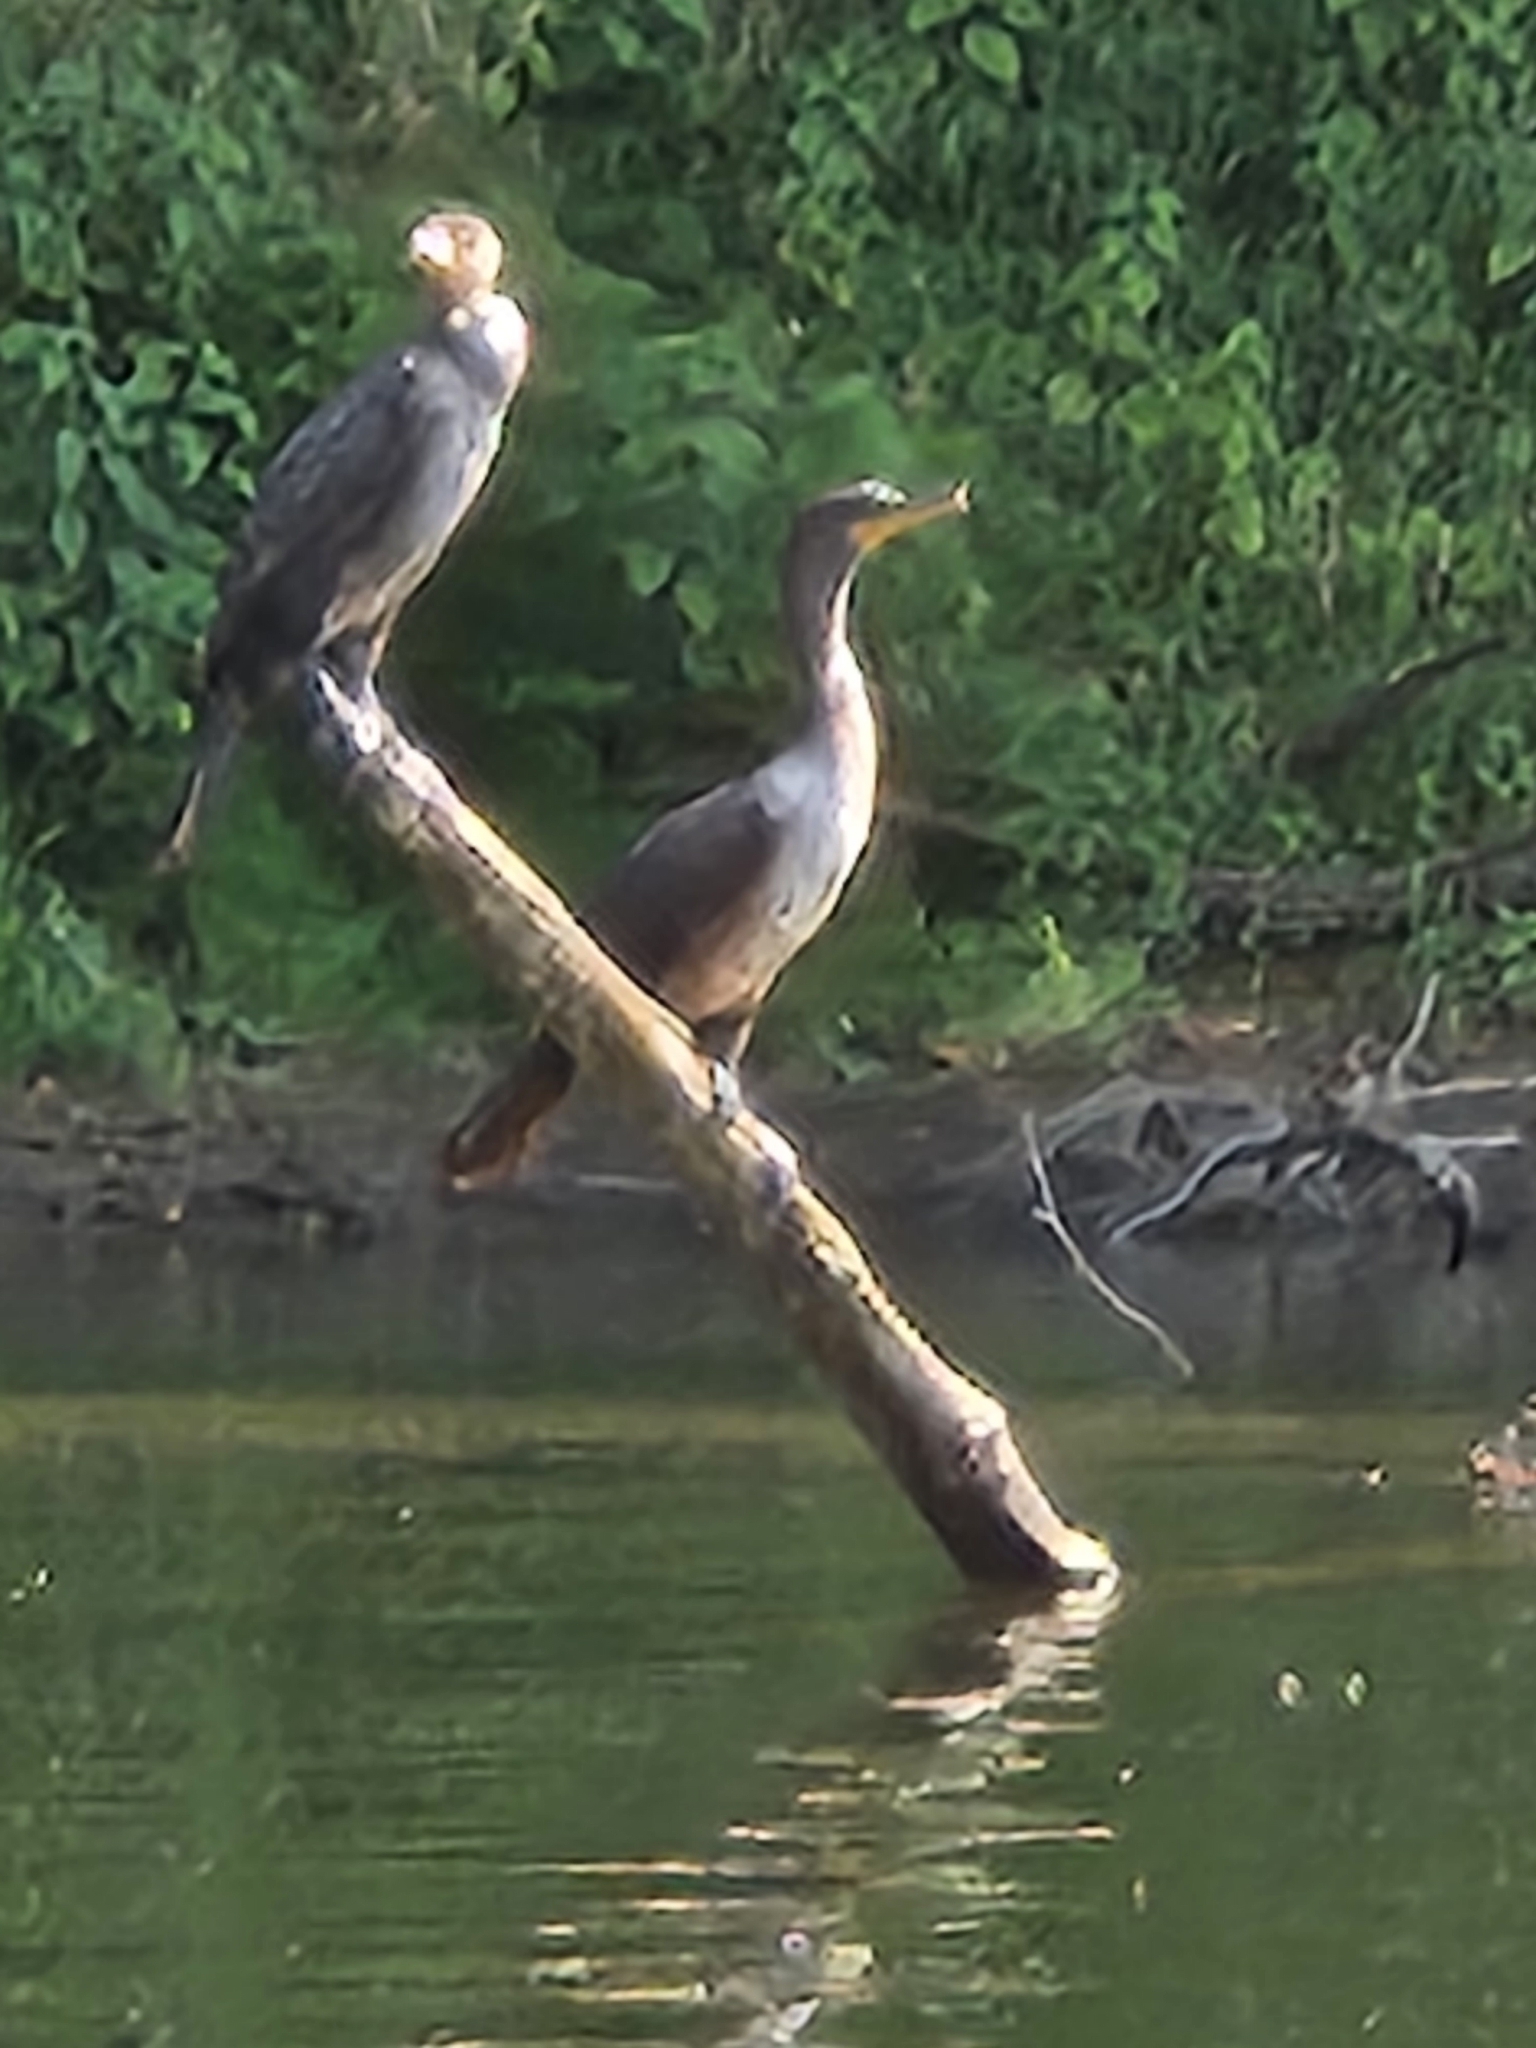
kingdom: Animalia
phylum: Chordata
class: Aves
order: Suliformes
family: Phalacrocoracidae
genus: Phalacrocorax
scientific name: Phalacrocorax auritus
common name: Double-crested cormorant
